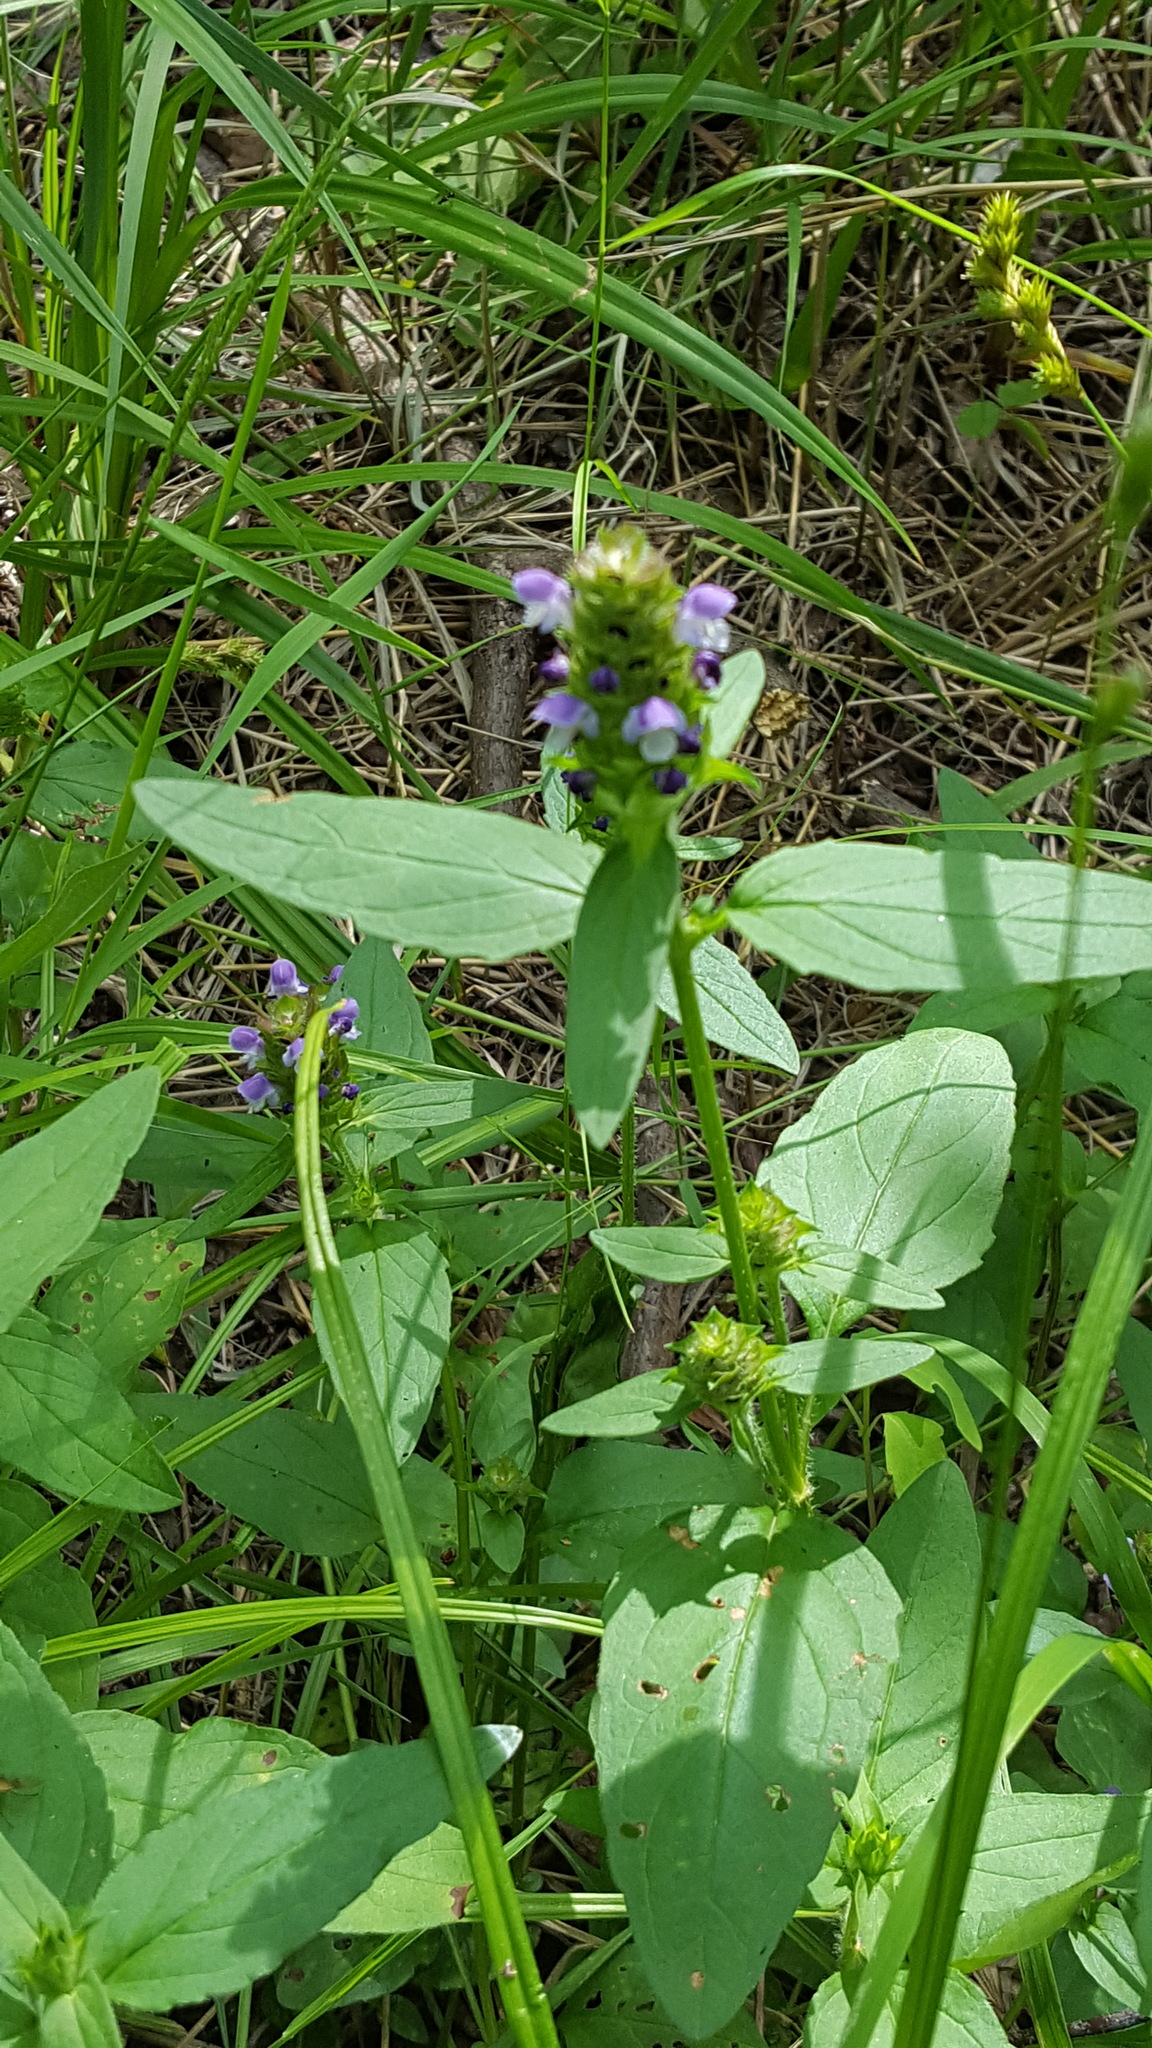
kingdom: Plantae
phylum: Tracheophyta
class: Magnoliopsida
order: Lamiales
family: Lamiaceae
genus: Prunella
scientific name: Prunella vulgaris
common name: Heal-all
